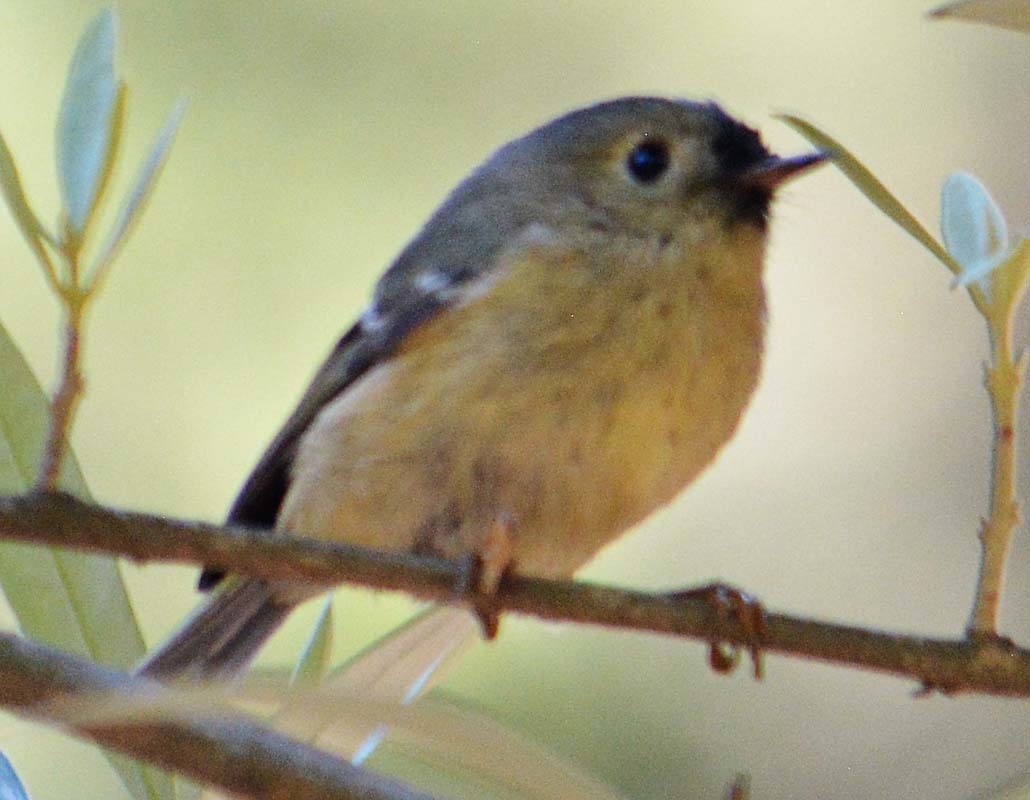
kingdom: Animalia
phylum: Chordata
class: Aves
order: Passeriformes
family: Regulidae
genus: Regulus
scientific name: Regulus calendula
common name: Ruby-crowned kinglet
